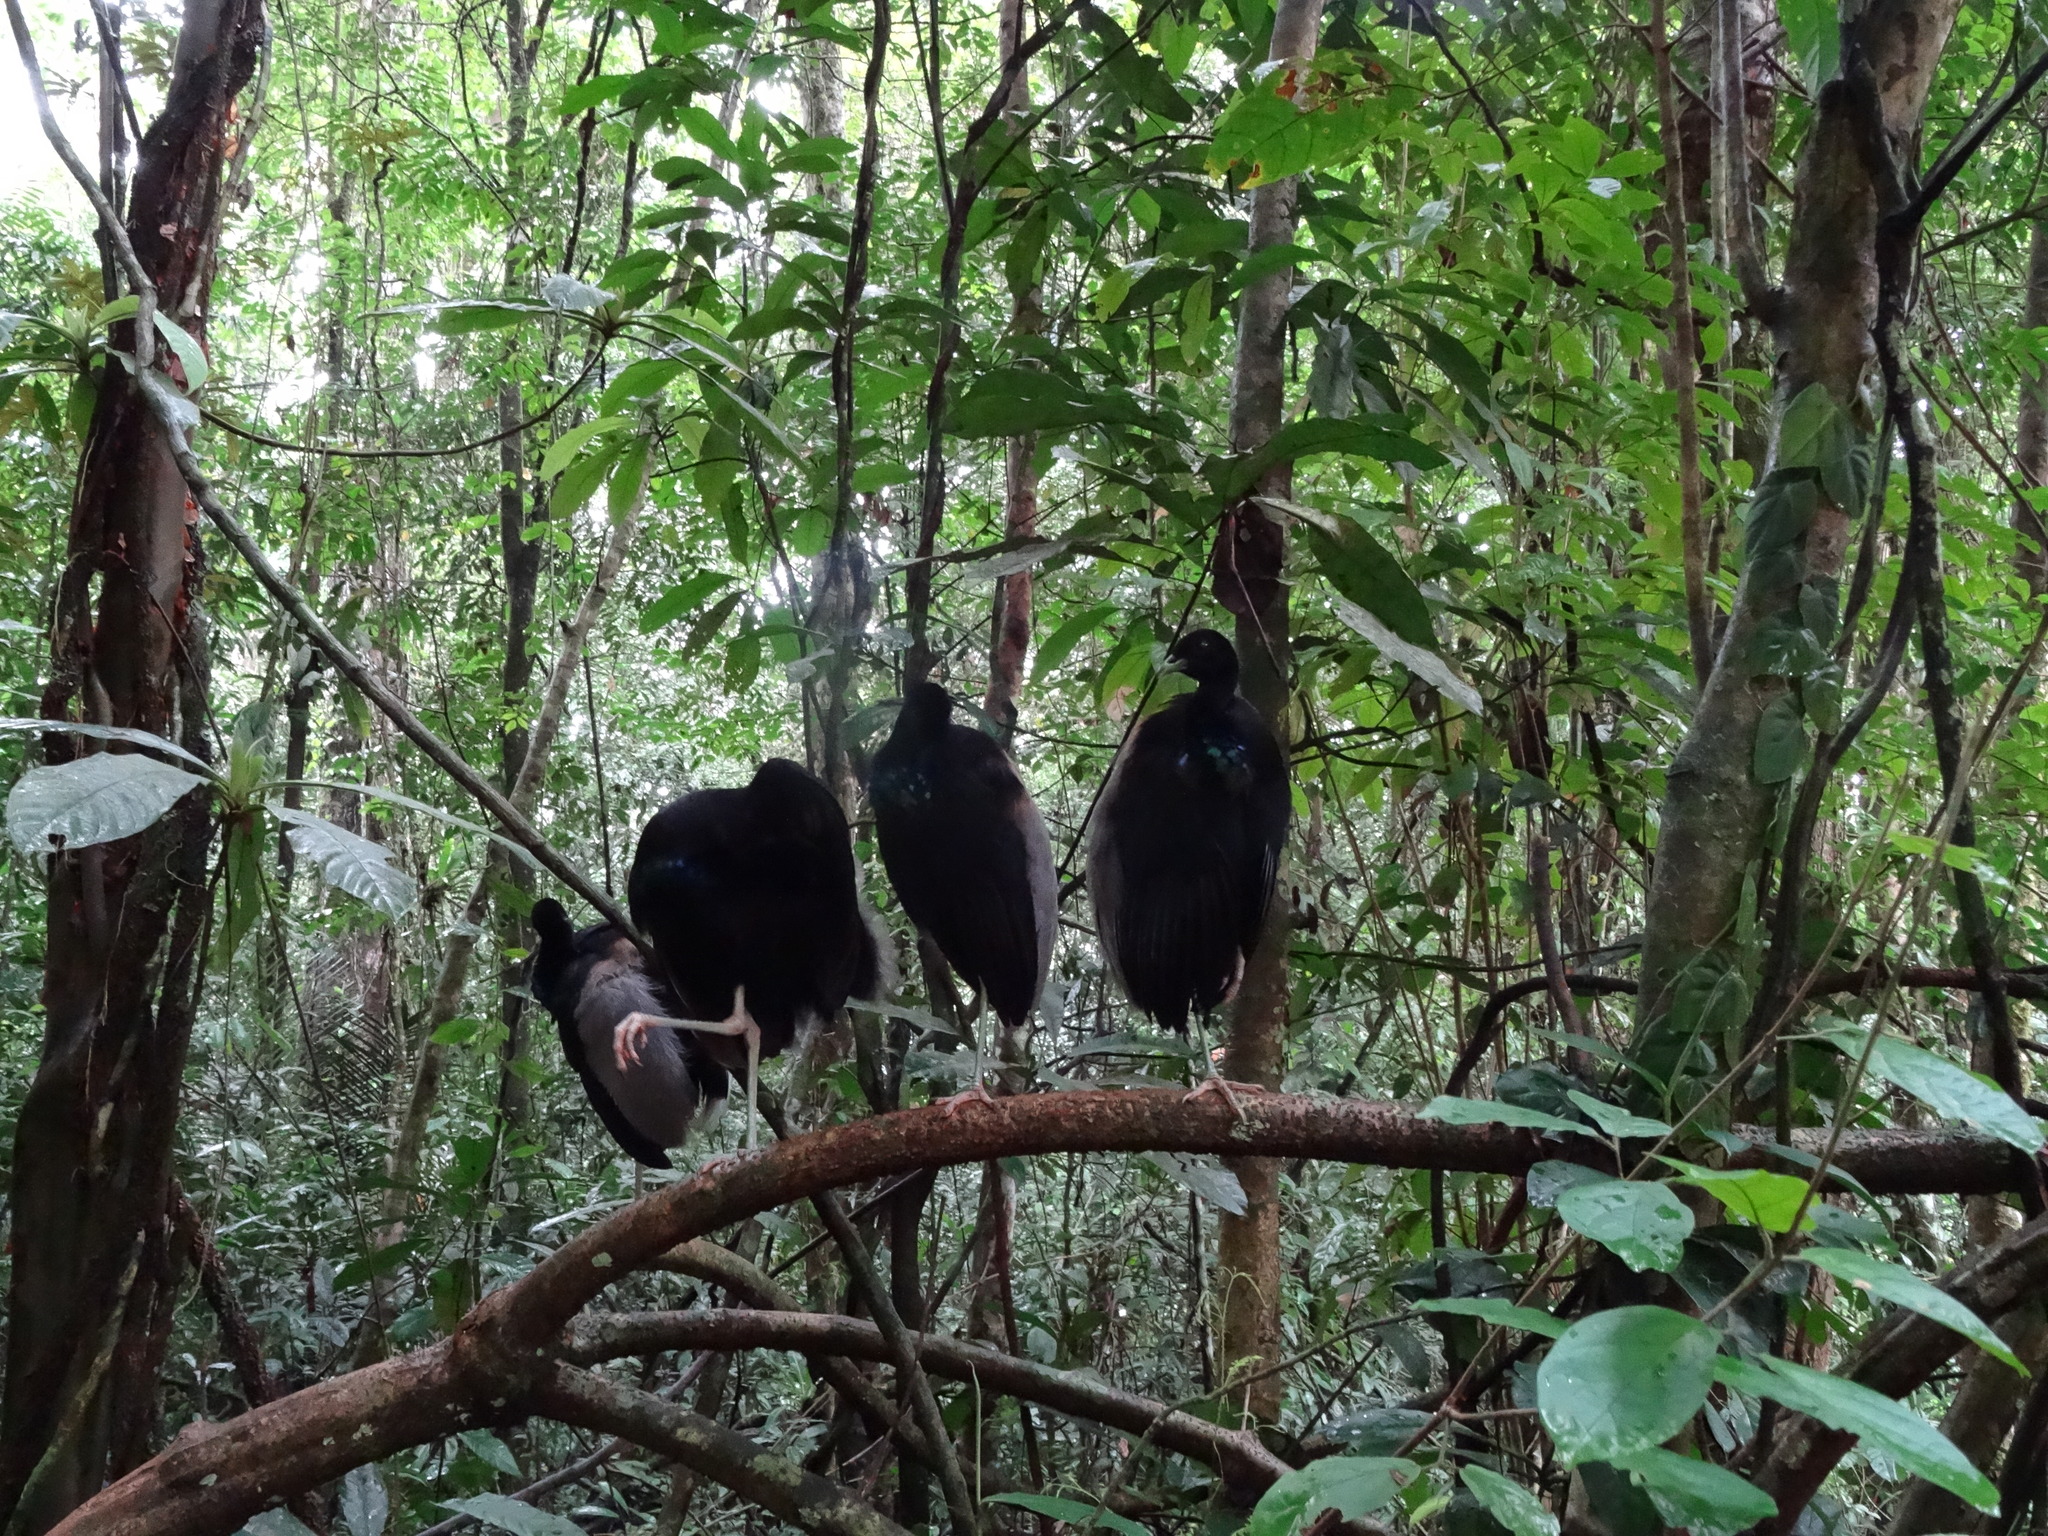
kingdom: Animalia
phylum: Chordata
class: Aves
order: Gruiformes
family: Psophiidae
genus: Psophia
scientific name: Psophia crepitans
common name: Grey-winged trumpeter
